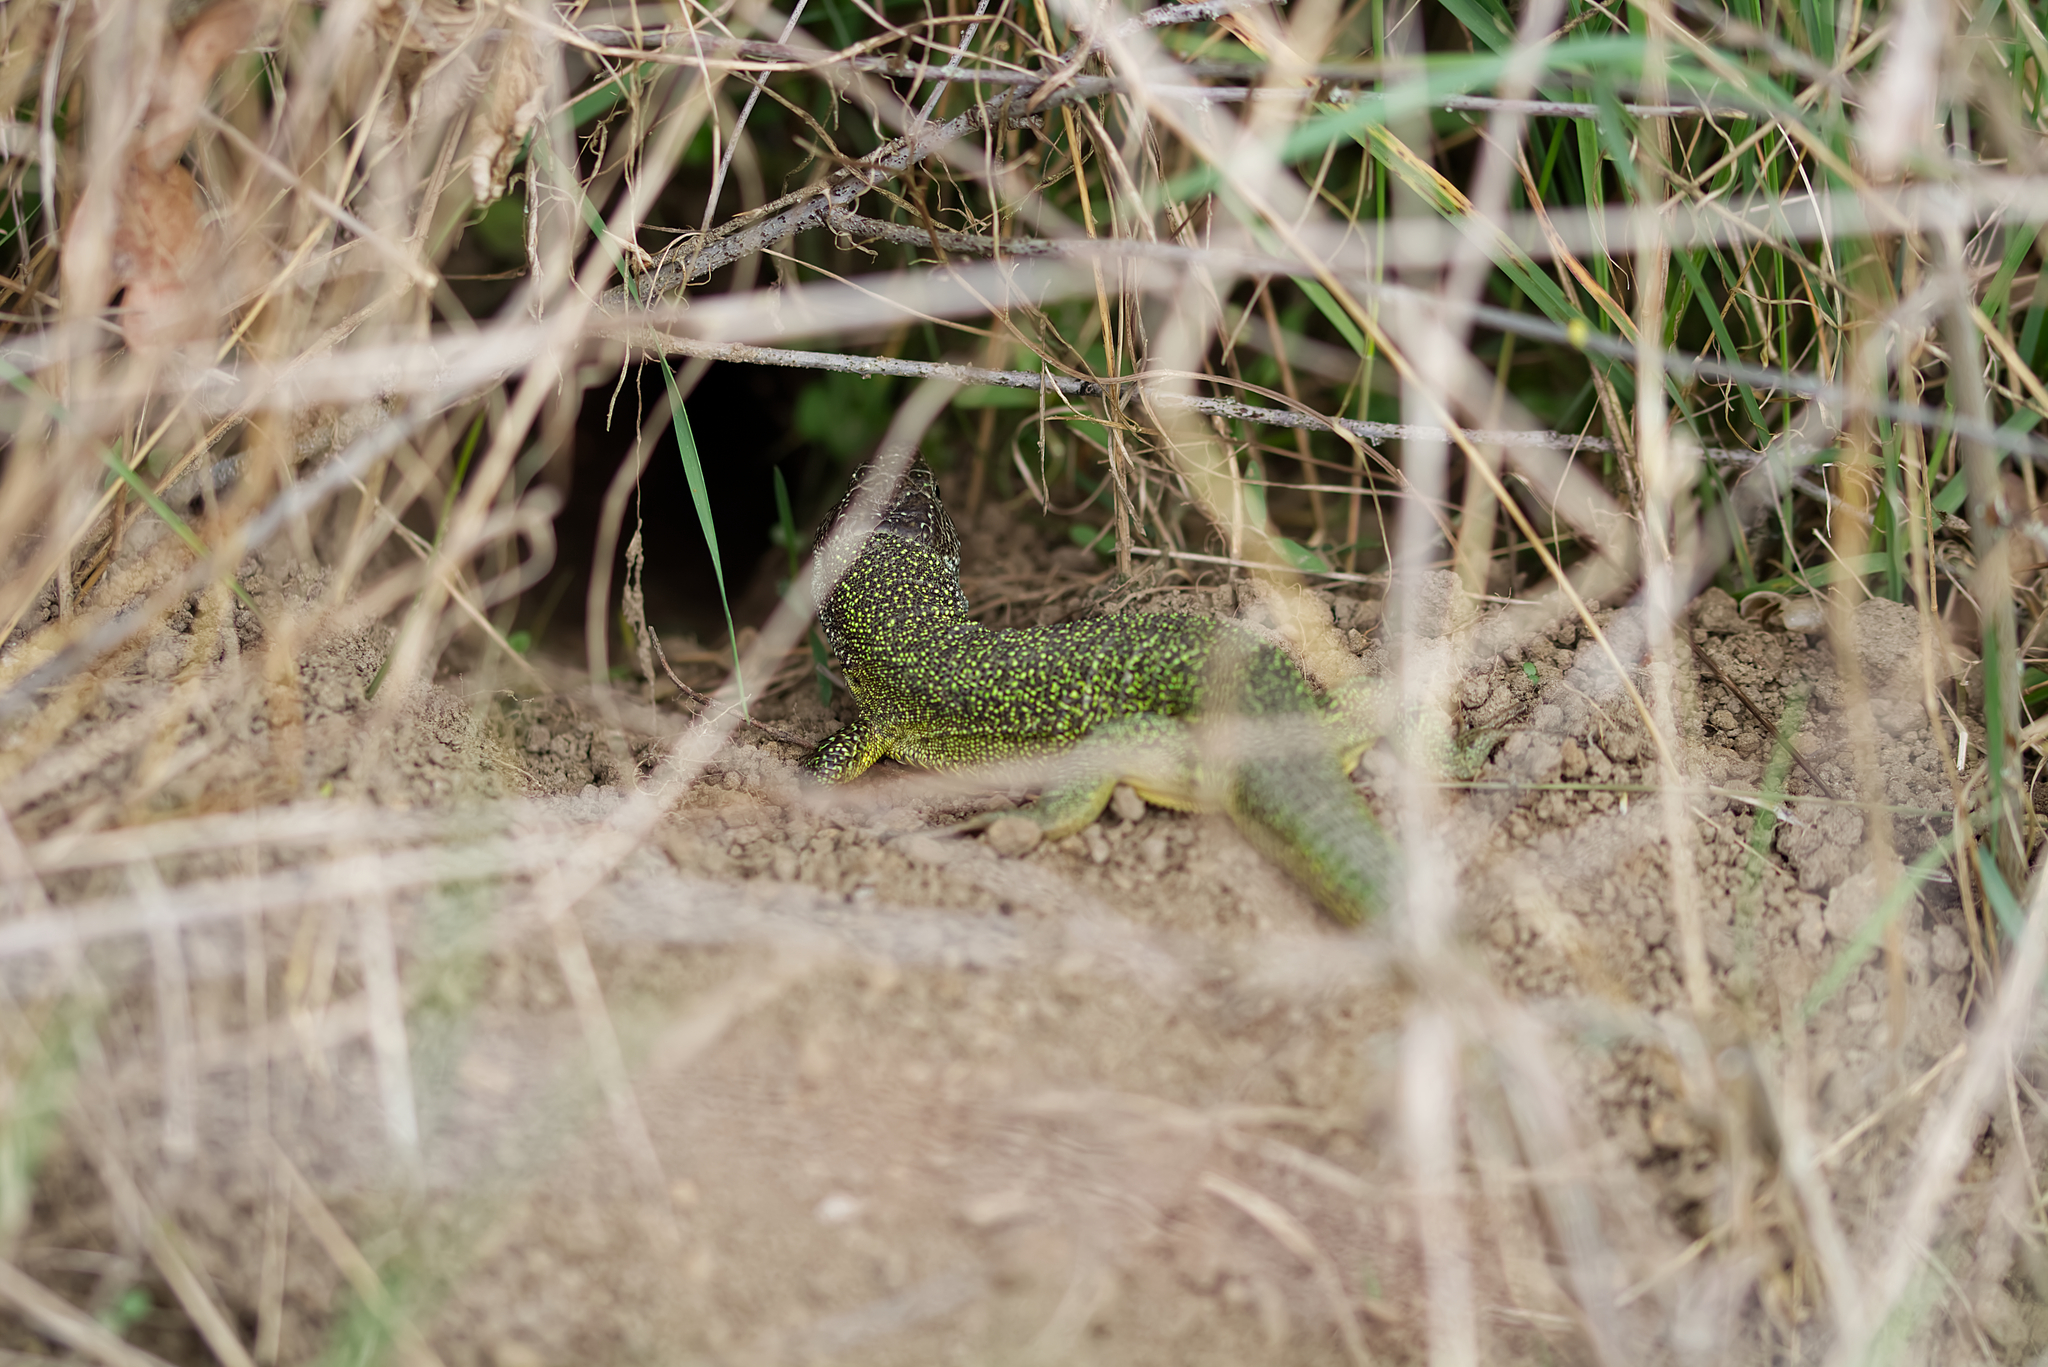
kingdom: Animalia
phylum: Chordata
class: Squamata
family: Lacertidae
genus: Lacerta
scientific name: Lacerta viridis
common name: European green lizard
